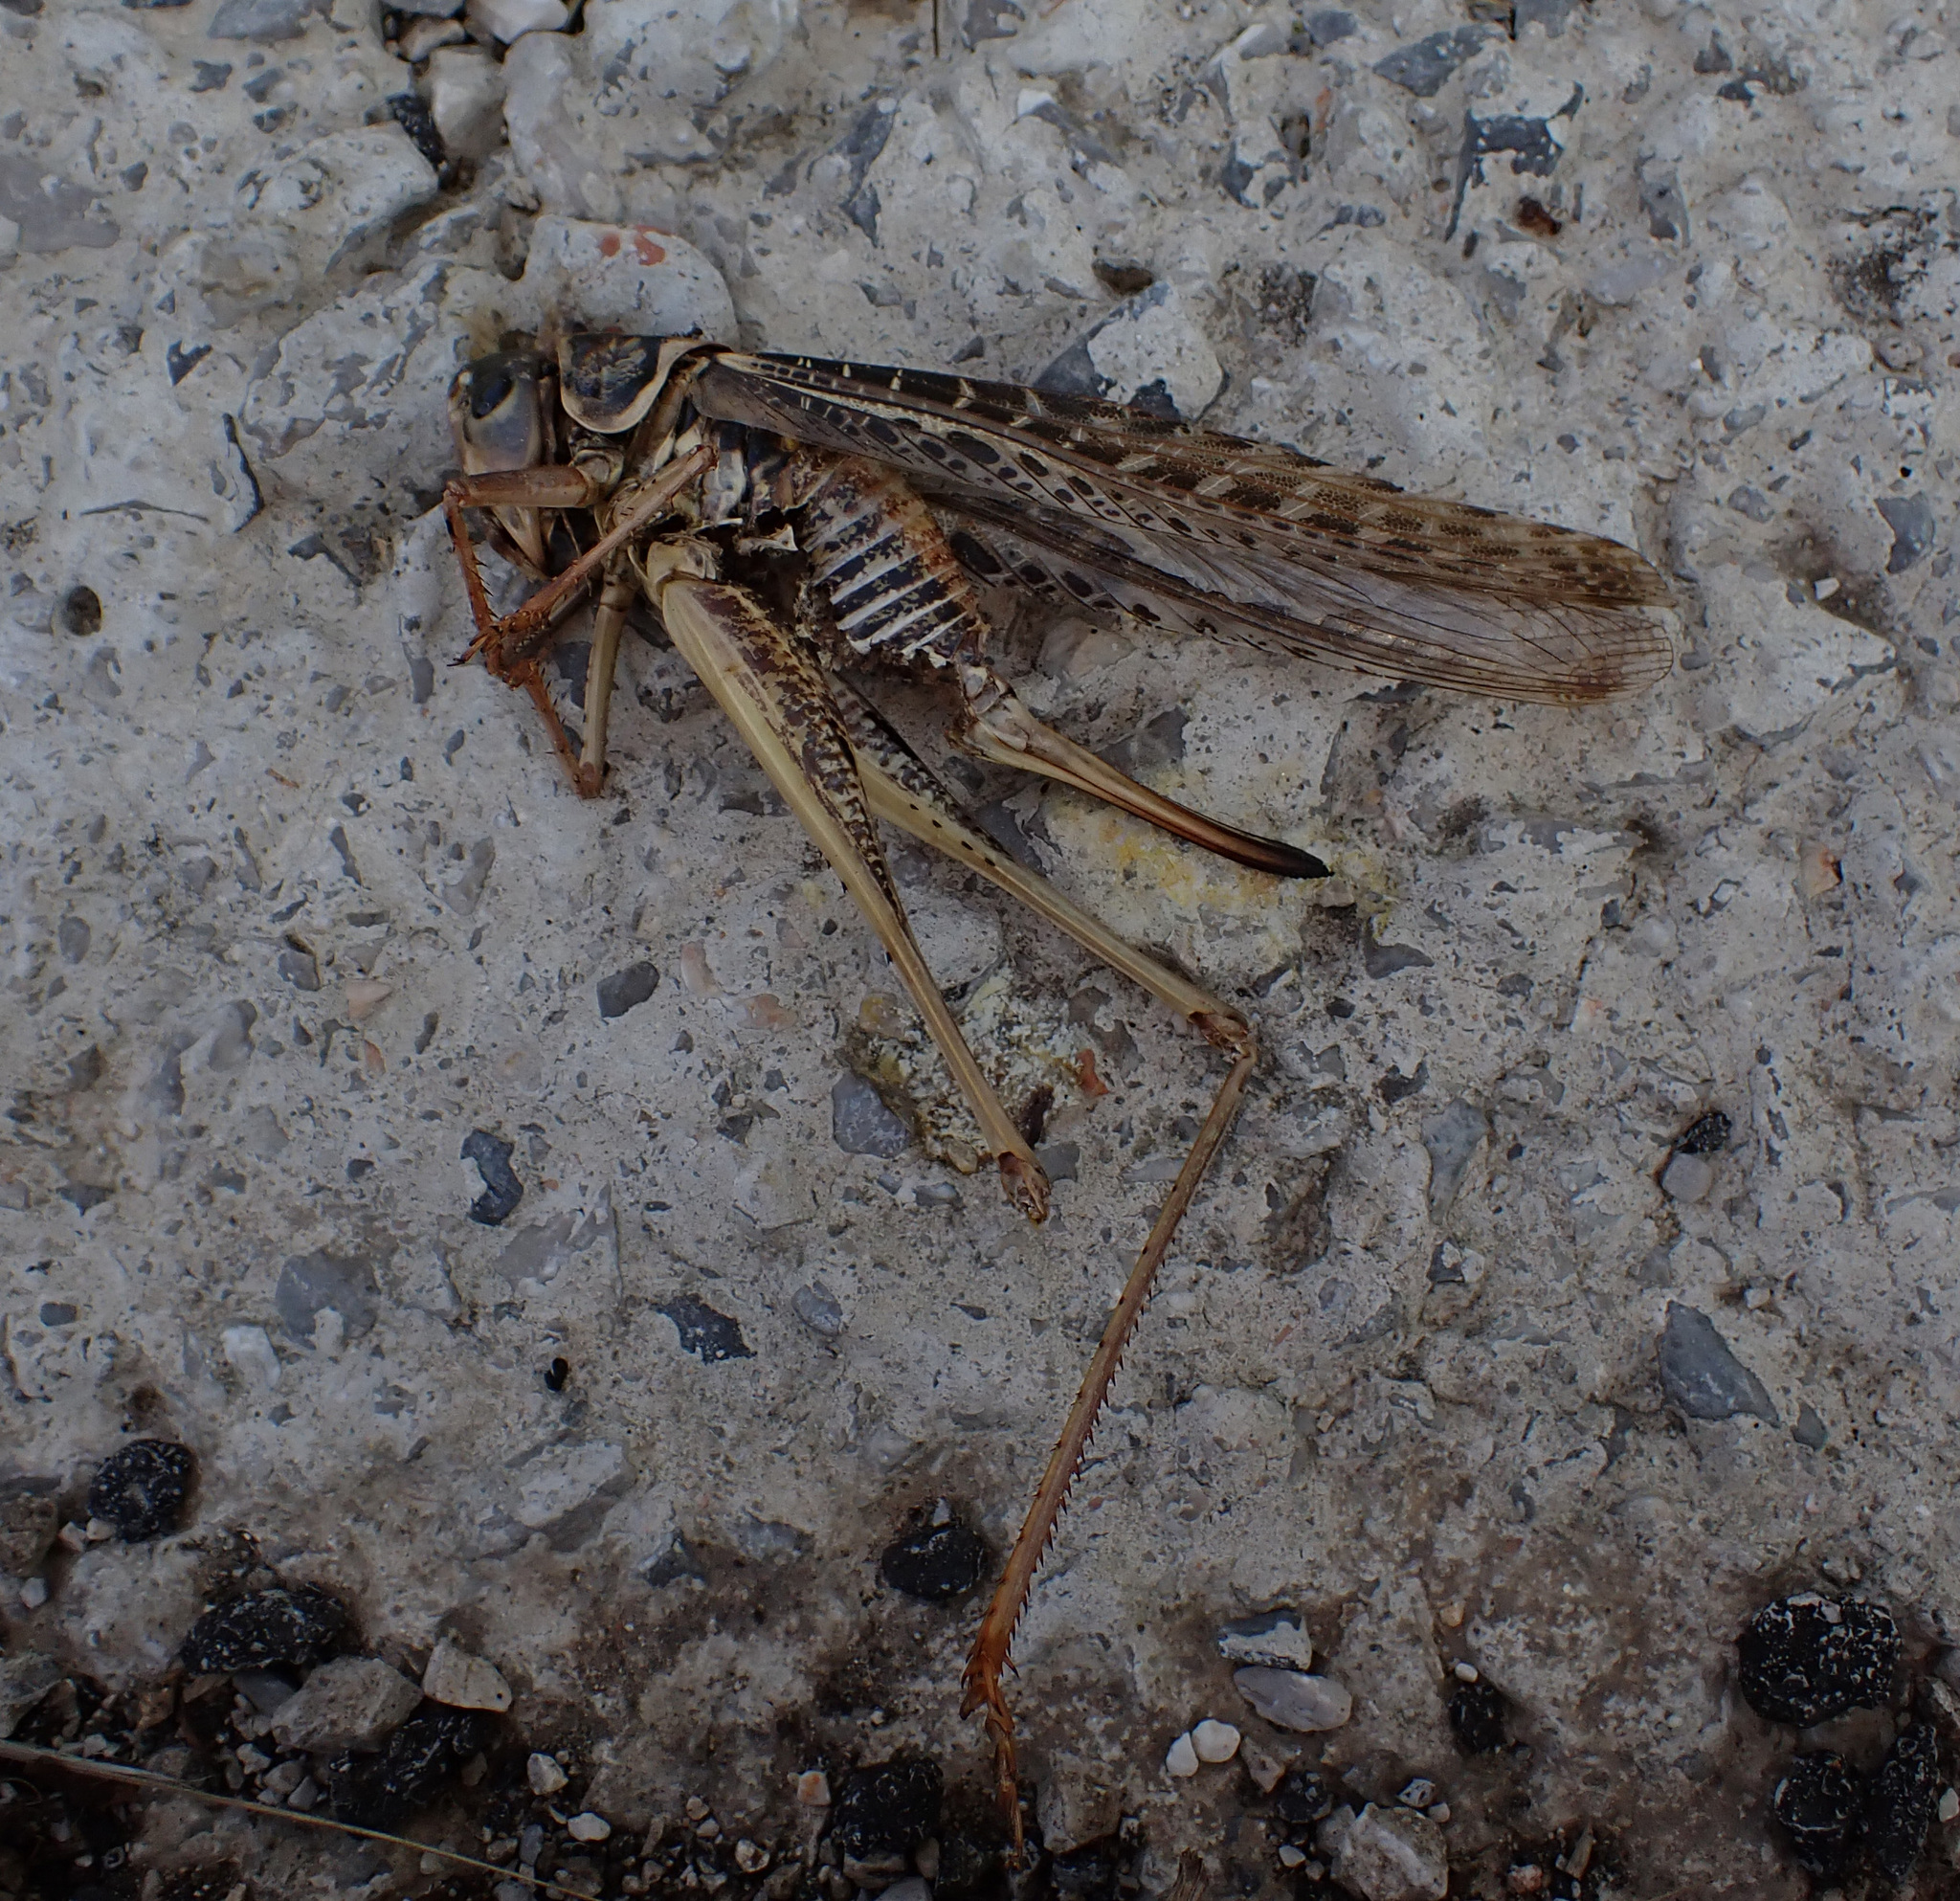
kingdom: Animalia
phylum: Arthropoda
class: Insecta
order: Orthoptera
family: Tettigoniidae
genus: Decticus
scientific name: Decticus albifrons
